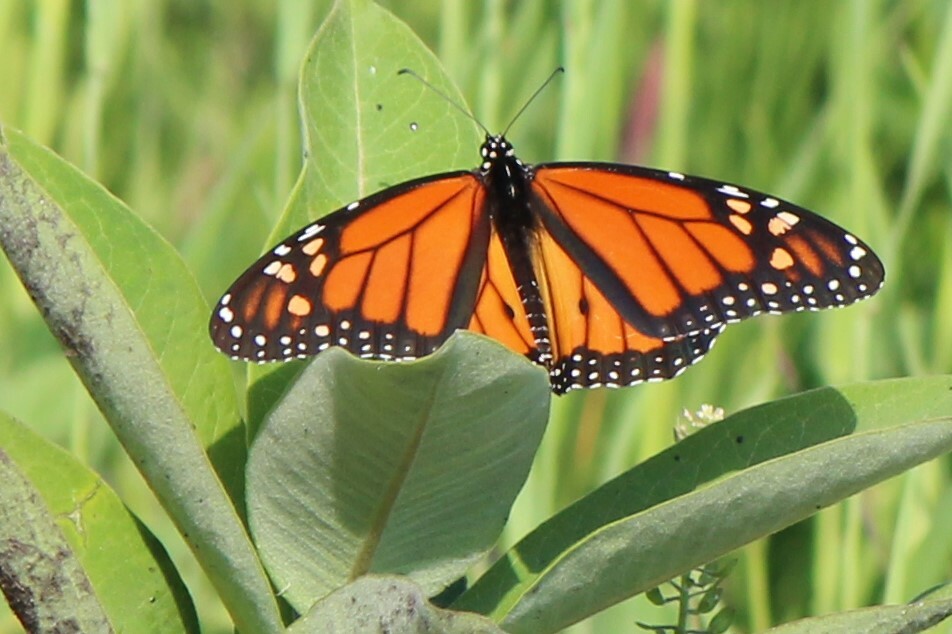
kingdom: Animalia
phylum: Arthropoda
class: Insecta
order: Lepidoptera
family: Nymphalidae
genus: Danaus
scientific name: Danaus plexippus
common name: Monarch
